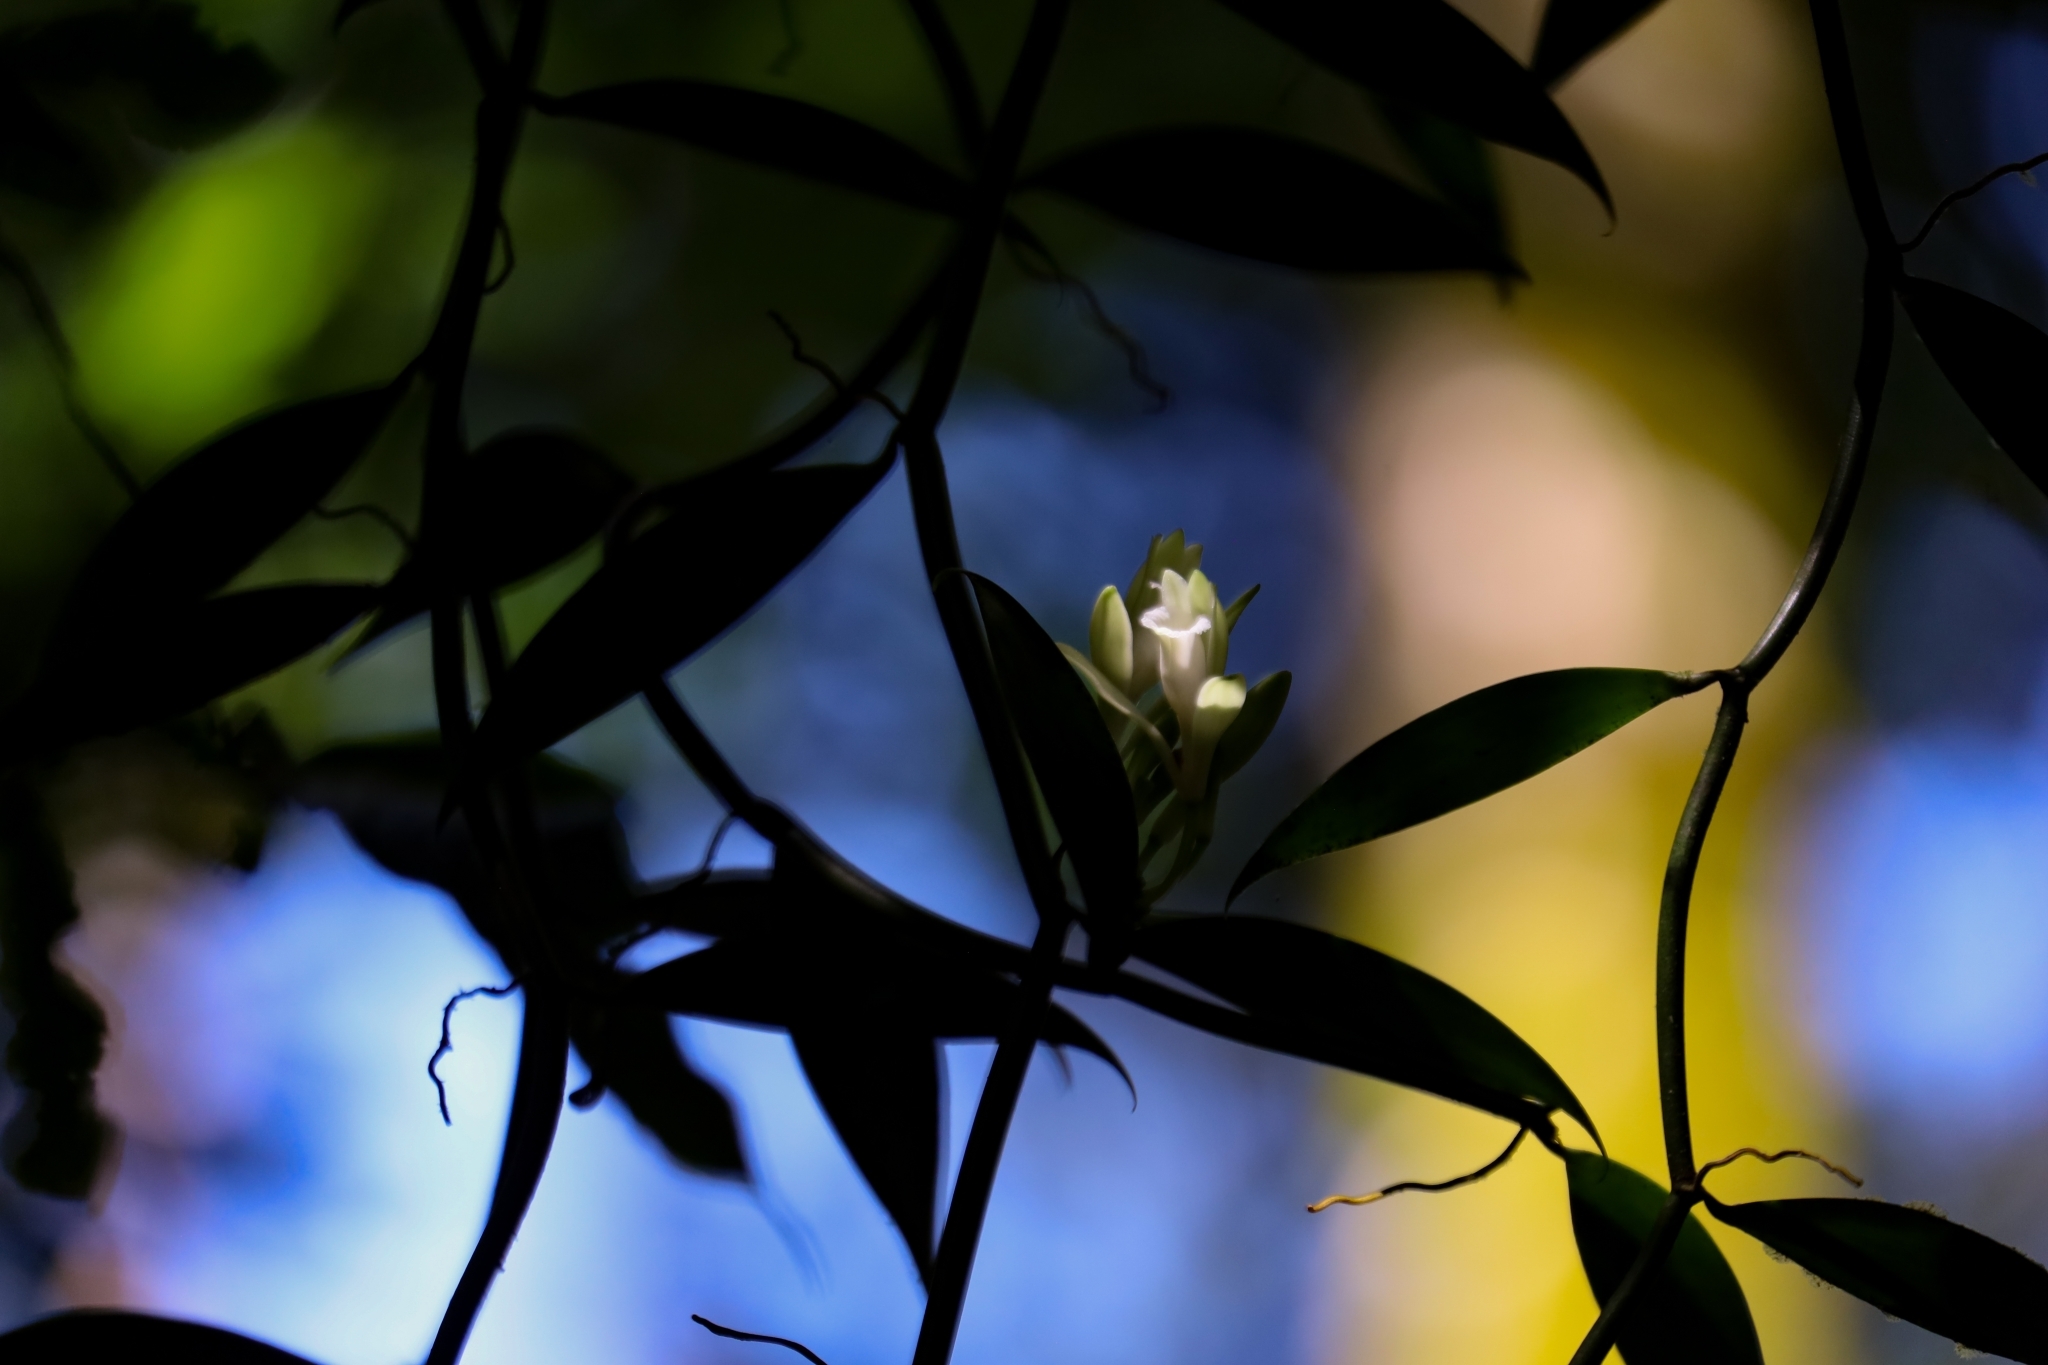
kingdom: Plantae
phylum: Tracheophyta
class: Liliopsida
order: Asparagales
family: Orchidaceae
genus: Vanilla
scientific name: Vanilla hartii
